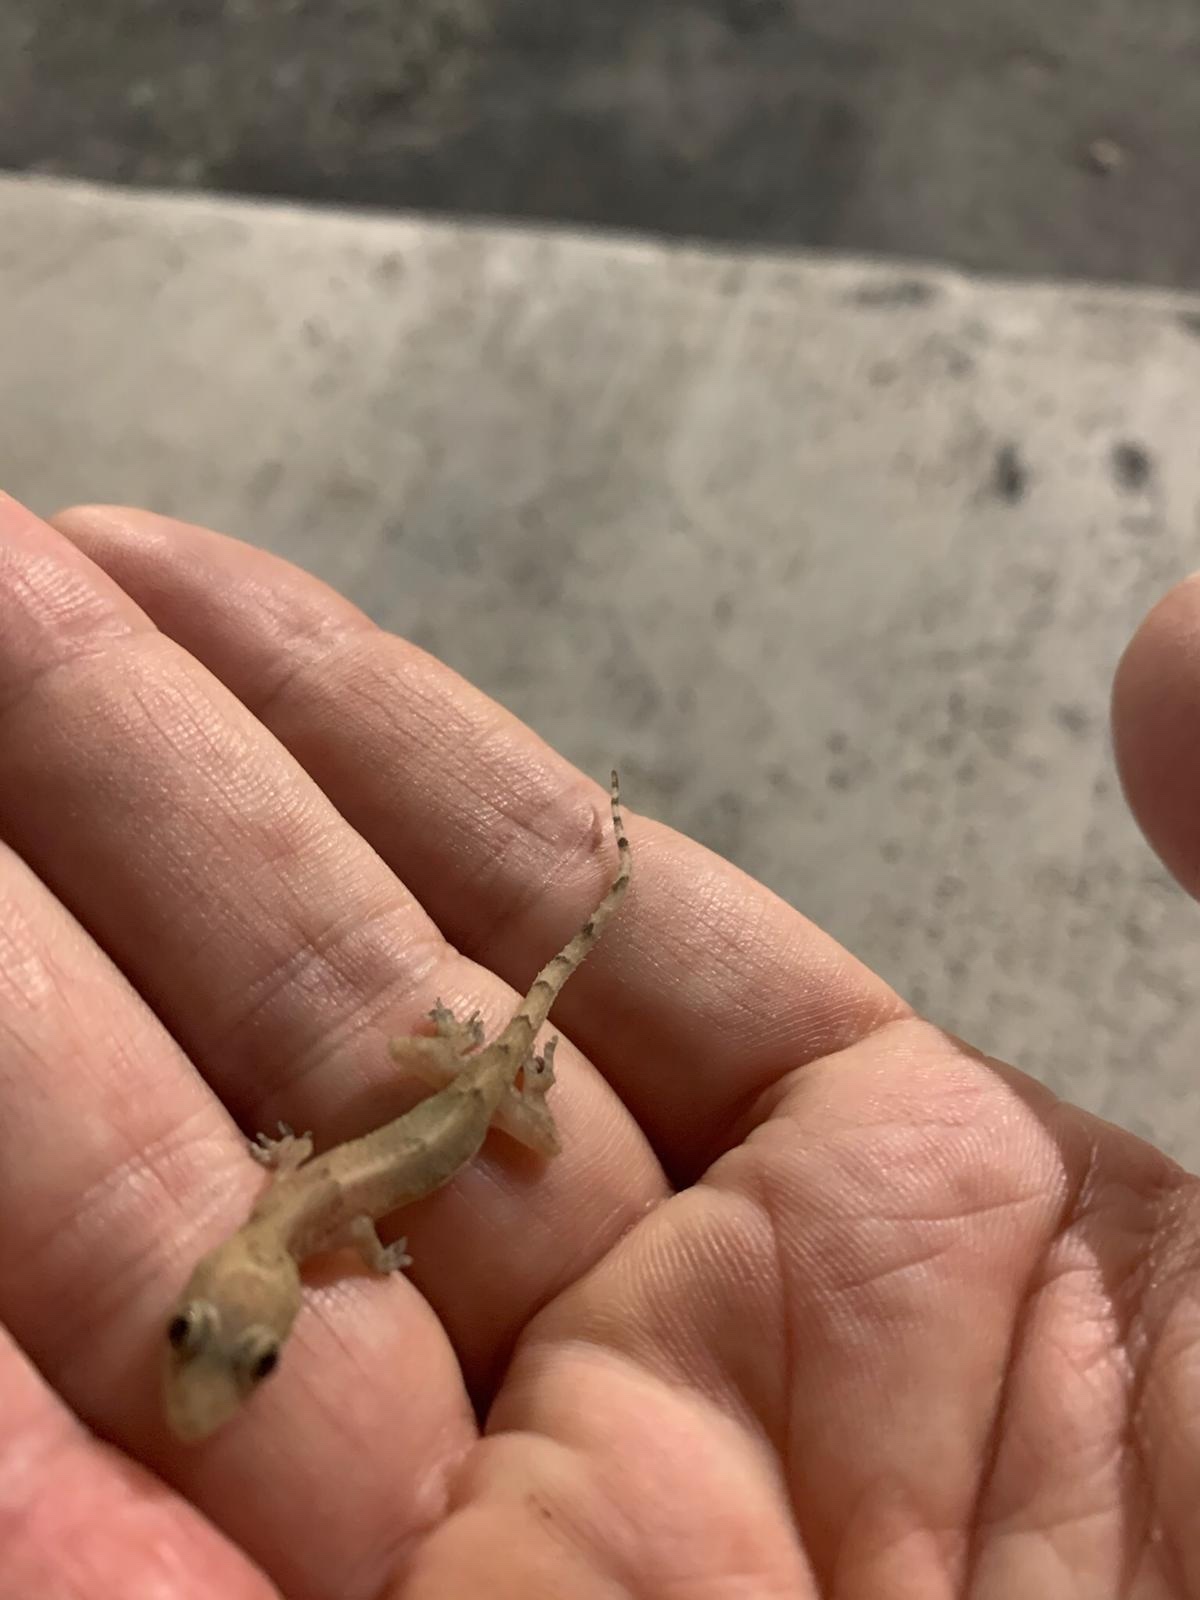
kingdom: Animalia
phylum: Chordata
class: Squamata
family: Gekkonidae
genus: Hemidactylus
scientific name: Hemidactylus mabouia
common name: House gecko
